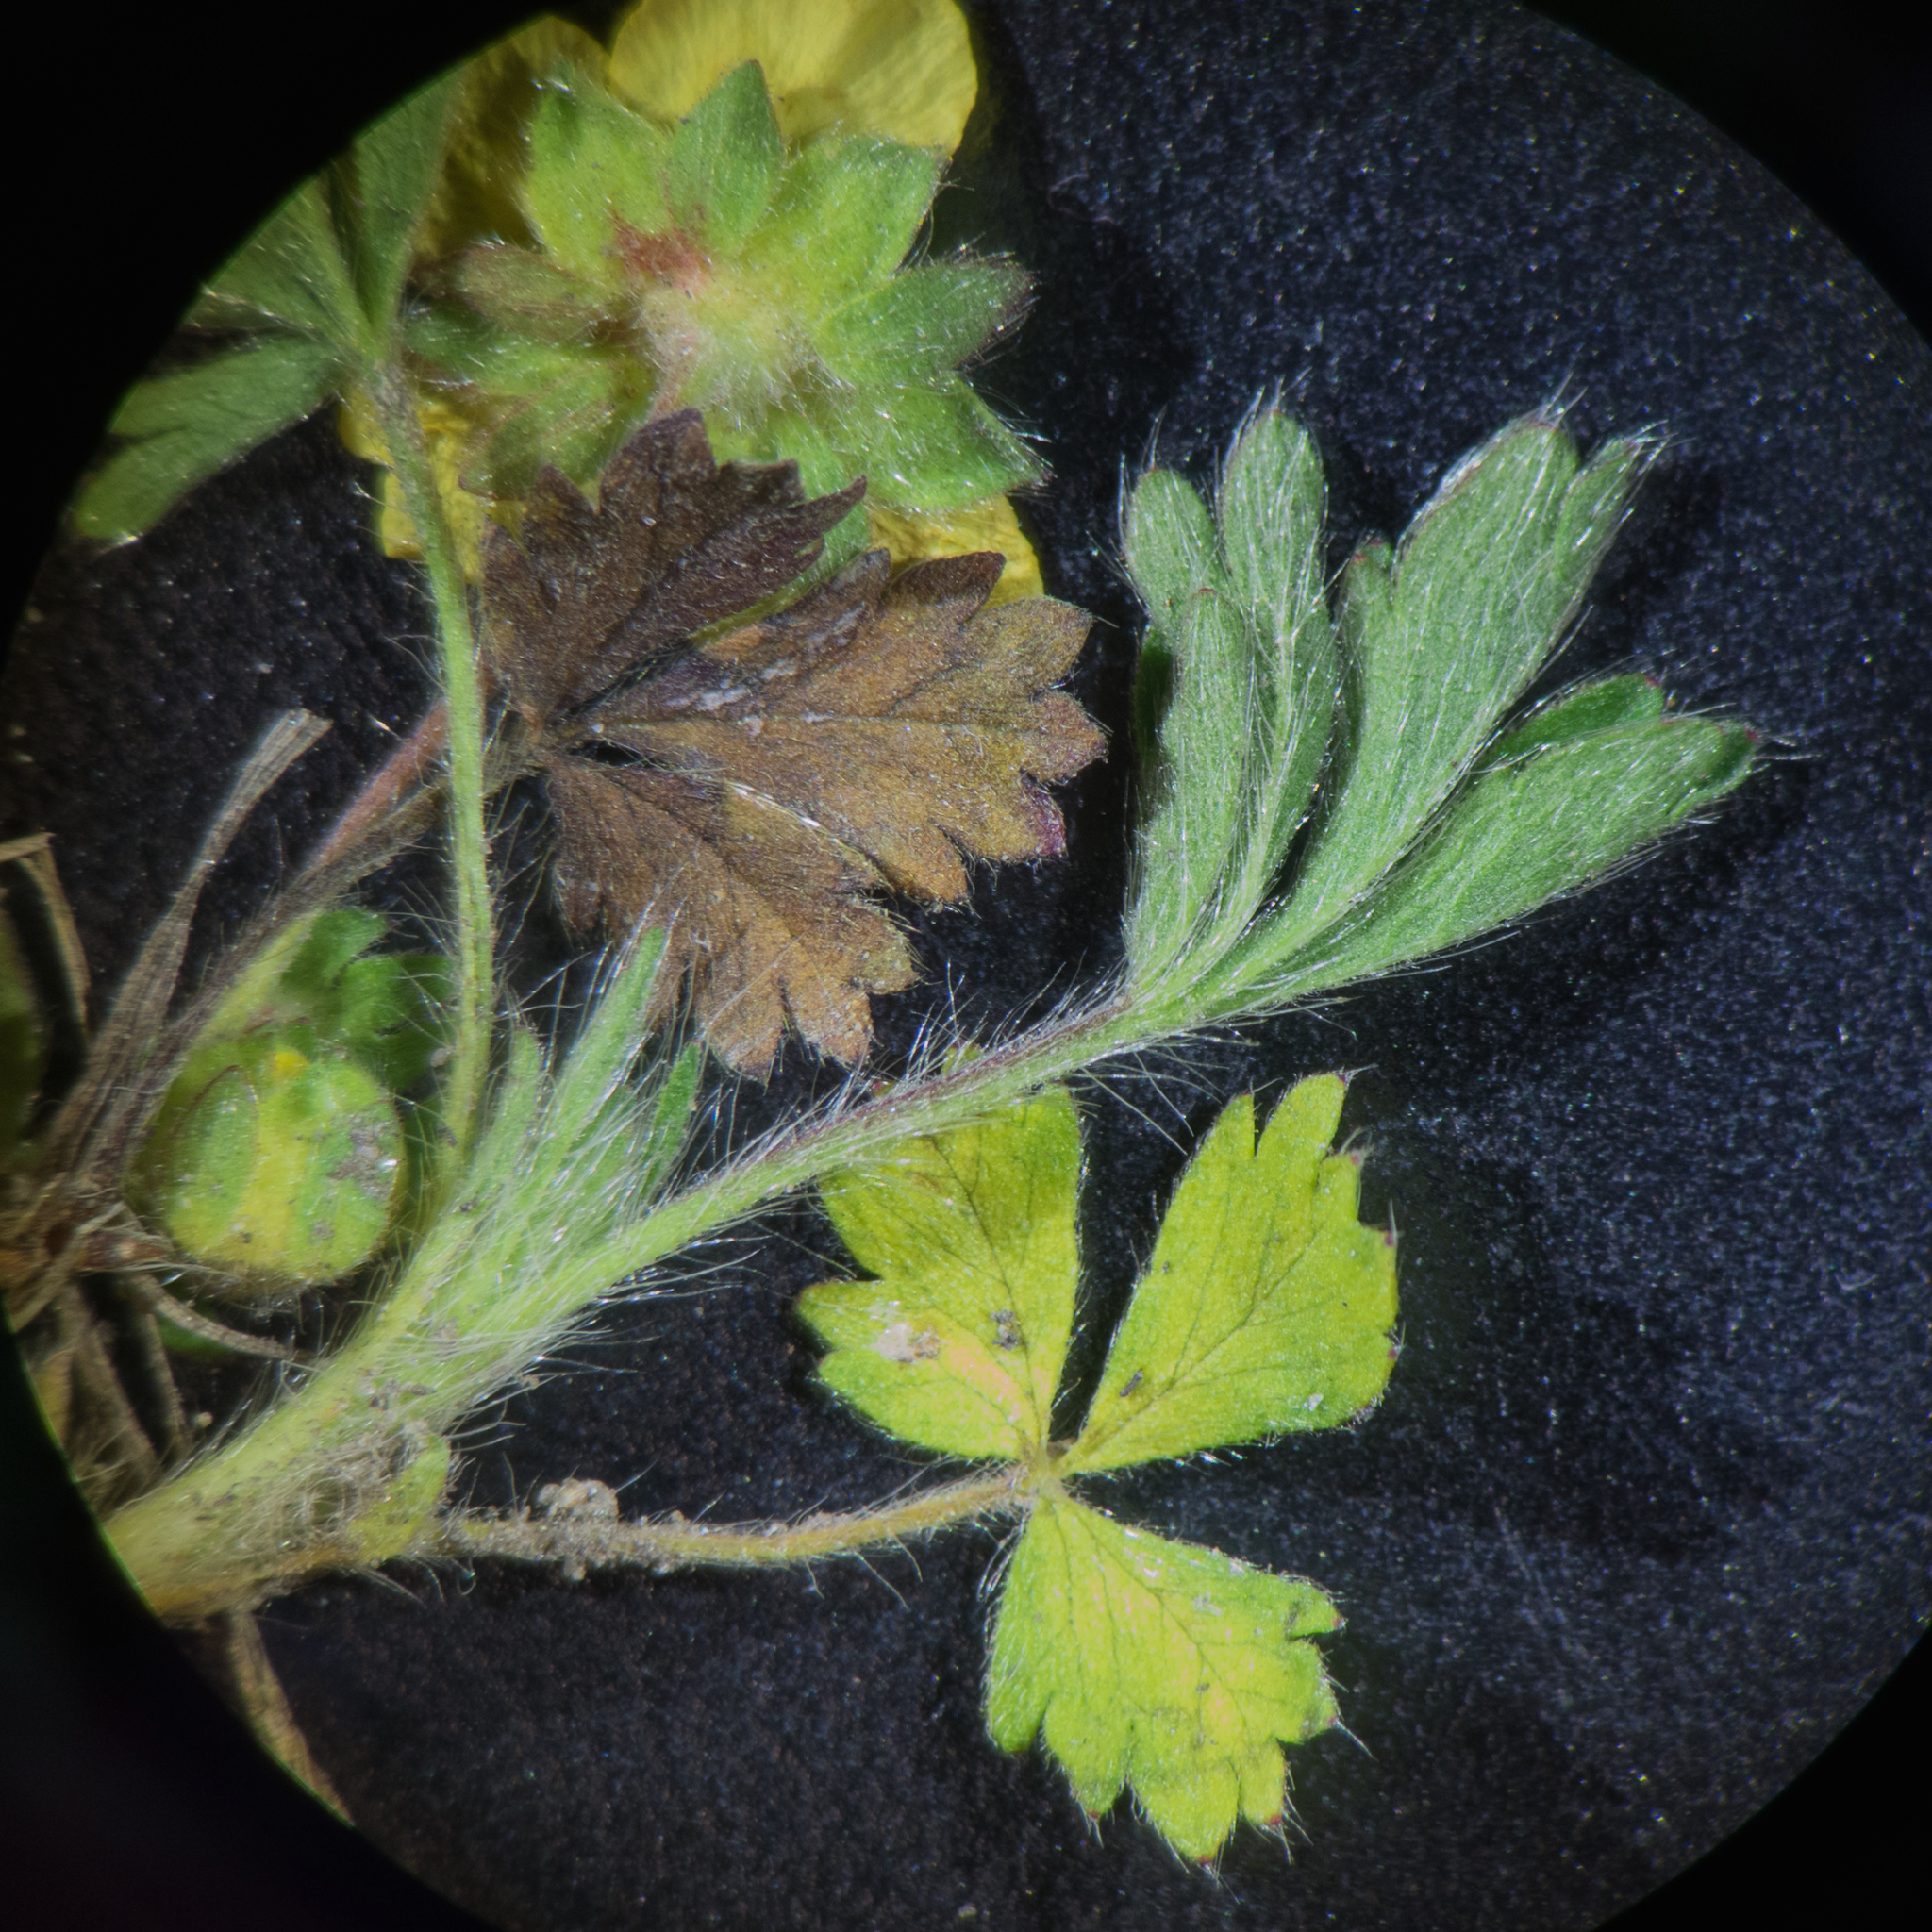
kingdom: Plantae
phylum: Tracheophyta
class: Magnoliopsida
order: Rosales
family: Rosaceae
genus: Potentilla
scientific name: Potentilla verna
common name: Spring cinquefoil
